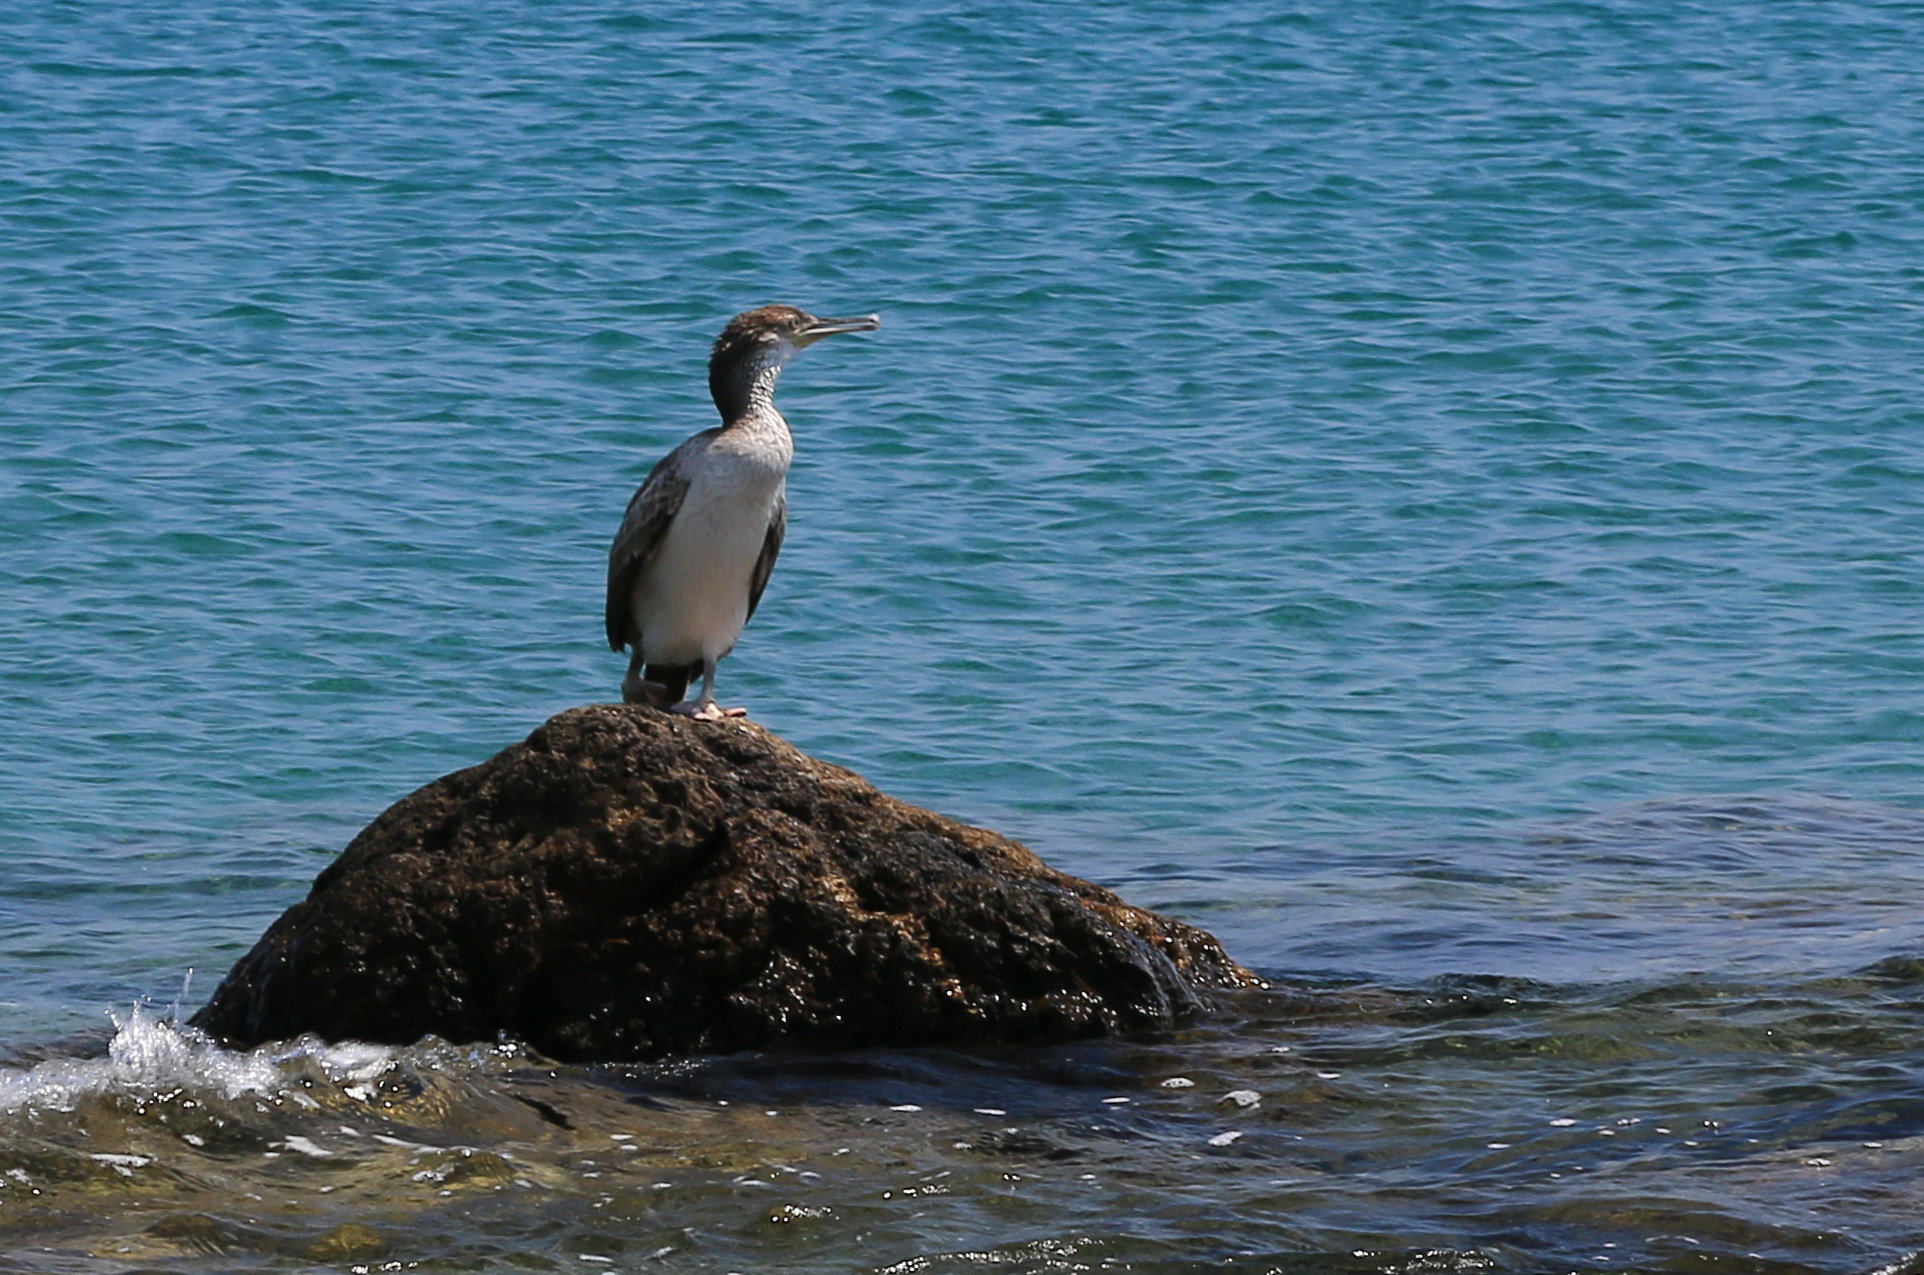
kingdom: Animalia
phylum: Chordata
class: Aves
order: Suliformes
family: Phalacrocoracidae
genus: Phalacrocorax
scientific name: Phalacrocorax aristotelis
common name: European shag
